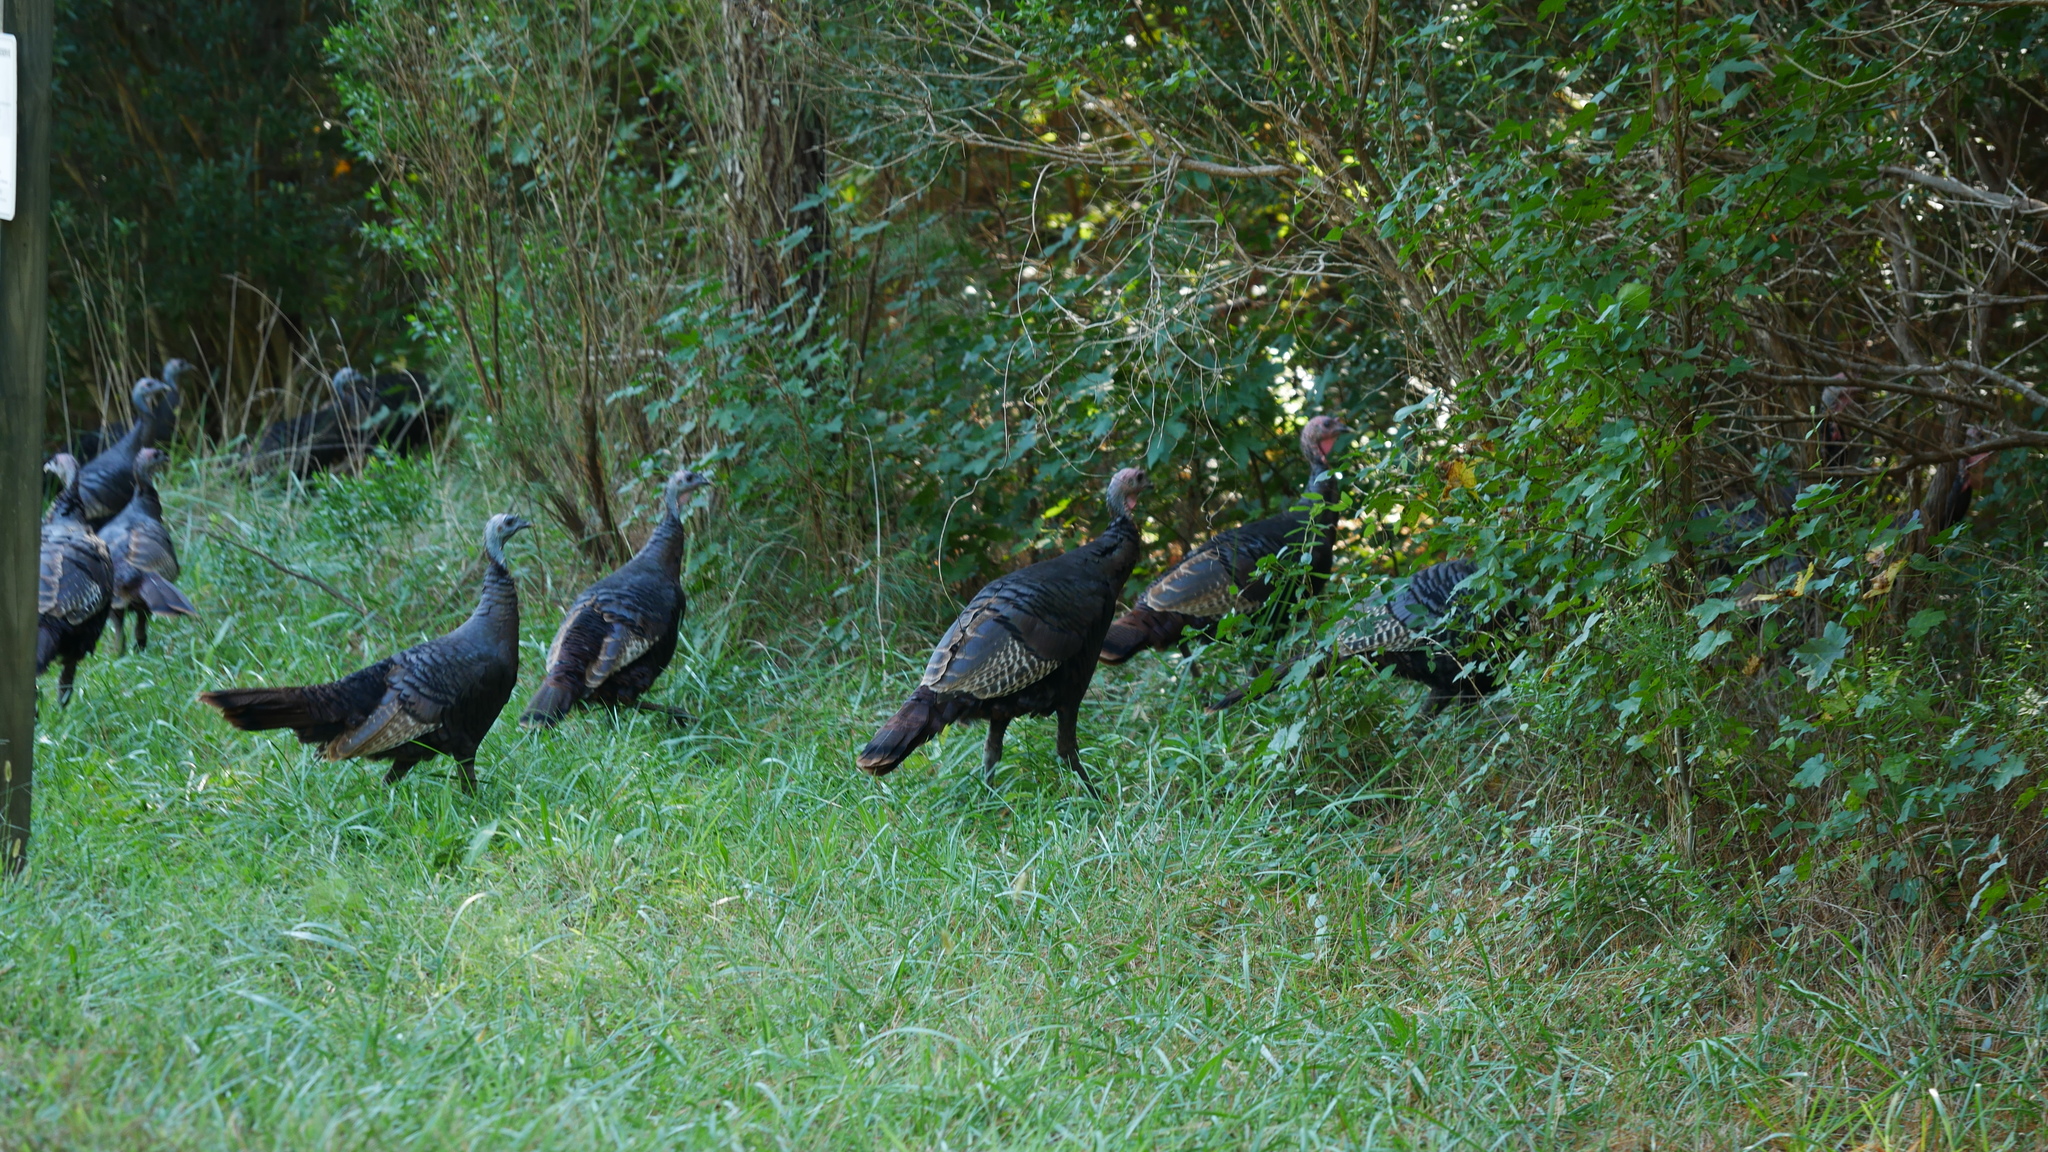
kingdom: Animalia
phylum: Chordata
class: Aves
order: Galliformes
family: Phasianidae
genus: Meleagris
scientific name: Meleagris gallopavo
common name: Wild turkey
